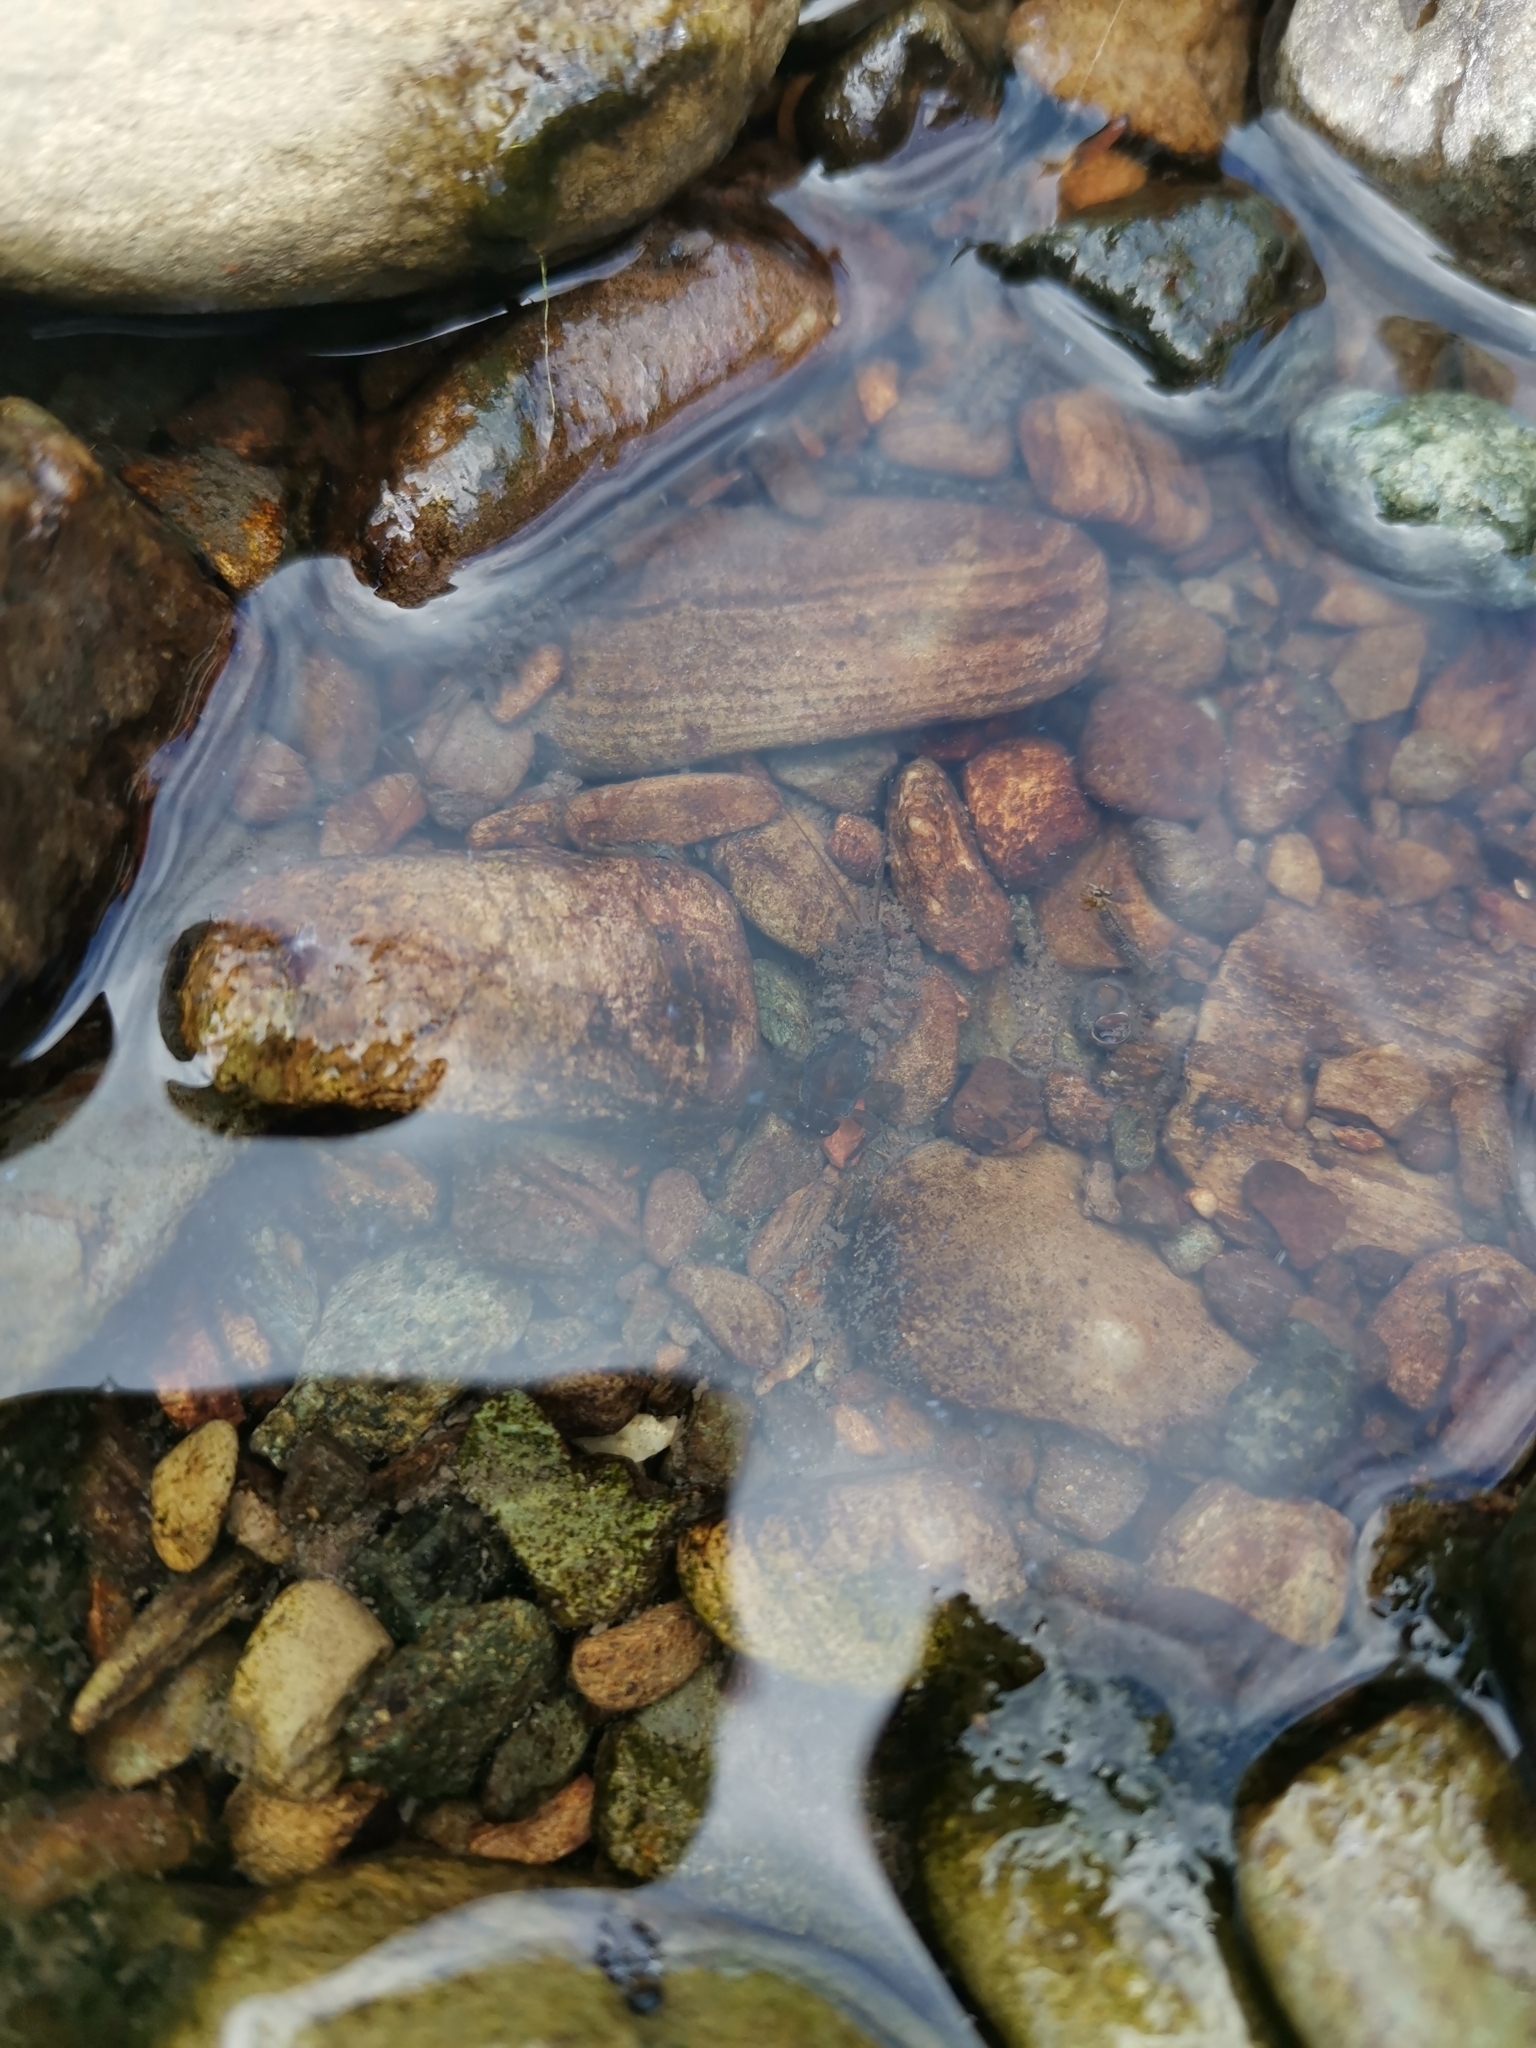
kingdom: Animalia
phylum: Arthropoda
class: Insecta
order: Ephemeroptera
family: Coloburiscidae
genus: Coloburiscus
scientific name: Coloburiscus humeralis
